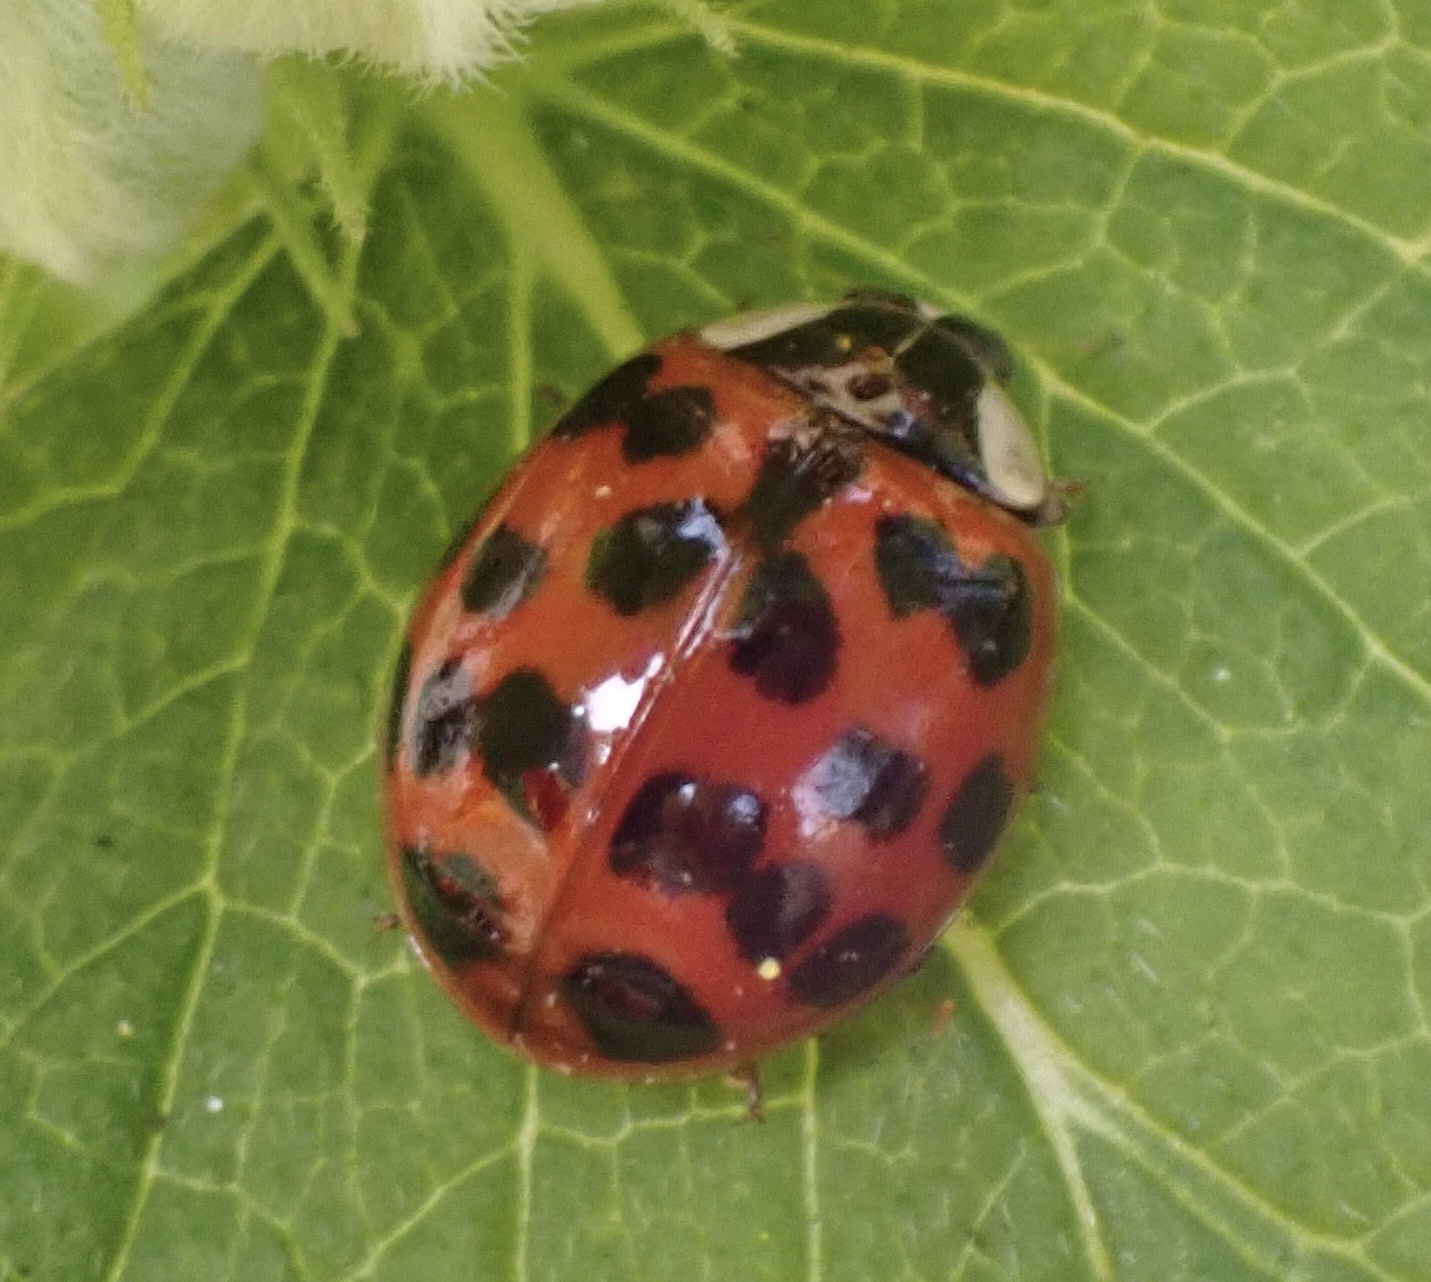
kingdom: Animalia
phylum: Arthropoda
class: Insecta
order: Coleoptera
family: Coccinellidae
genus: Harmonia
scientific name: Harmonia axyridis
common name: Harlequin ladybird
